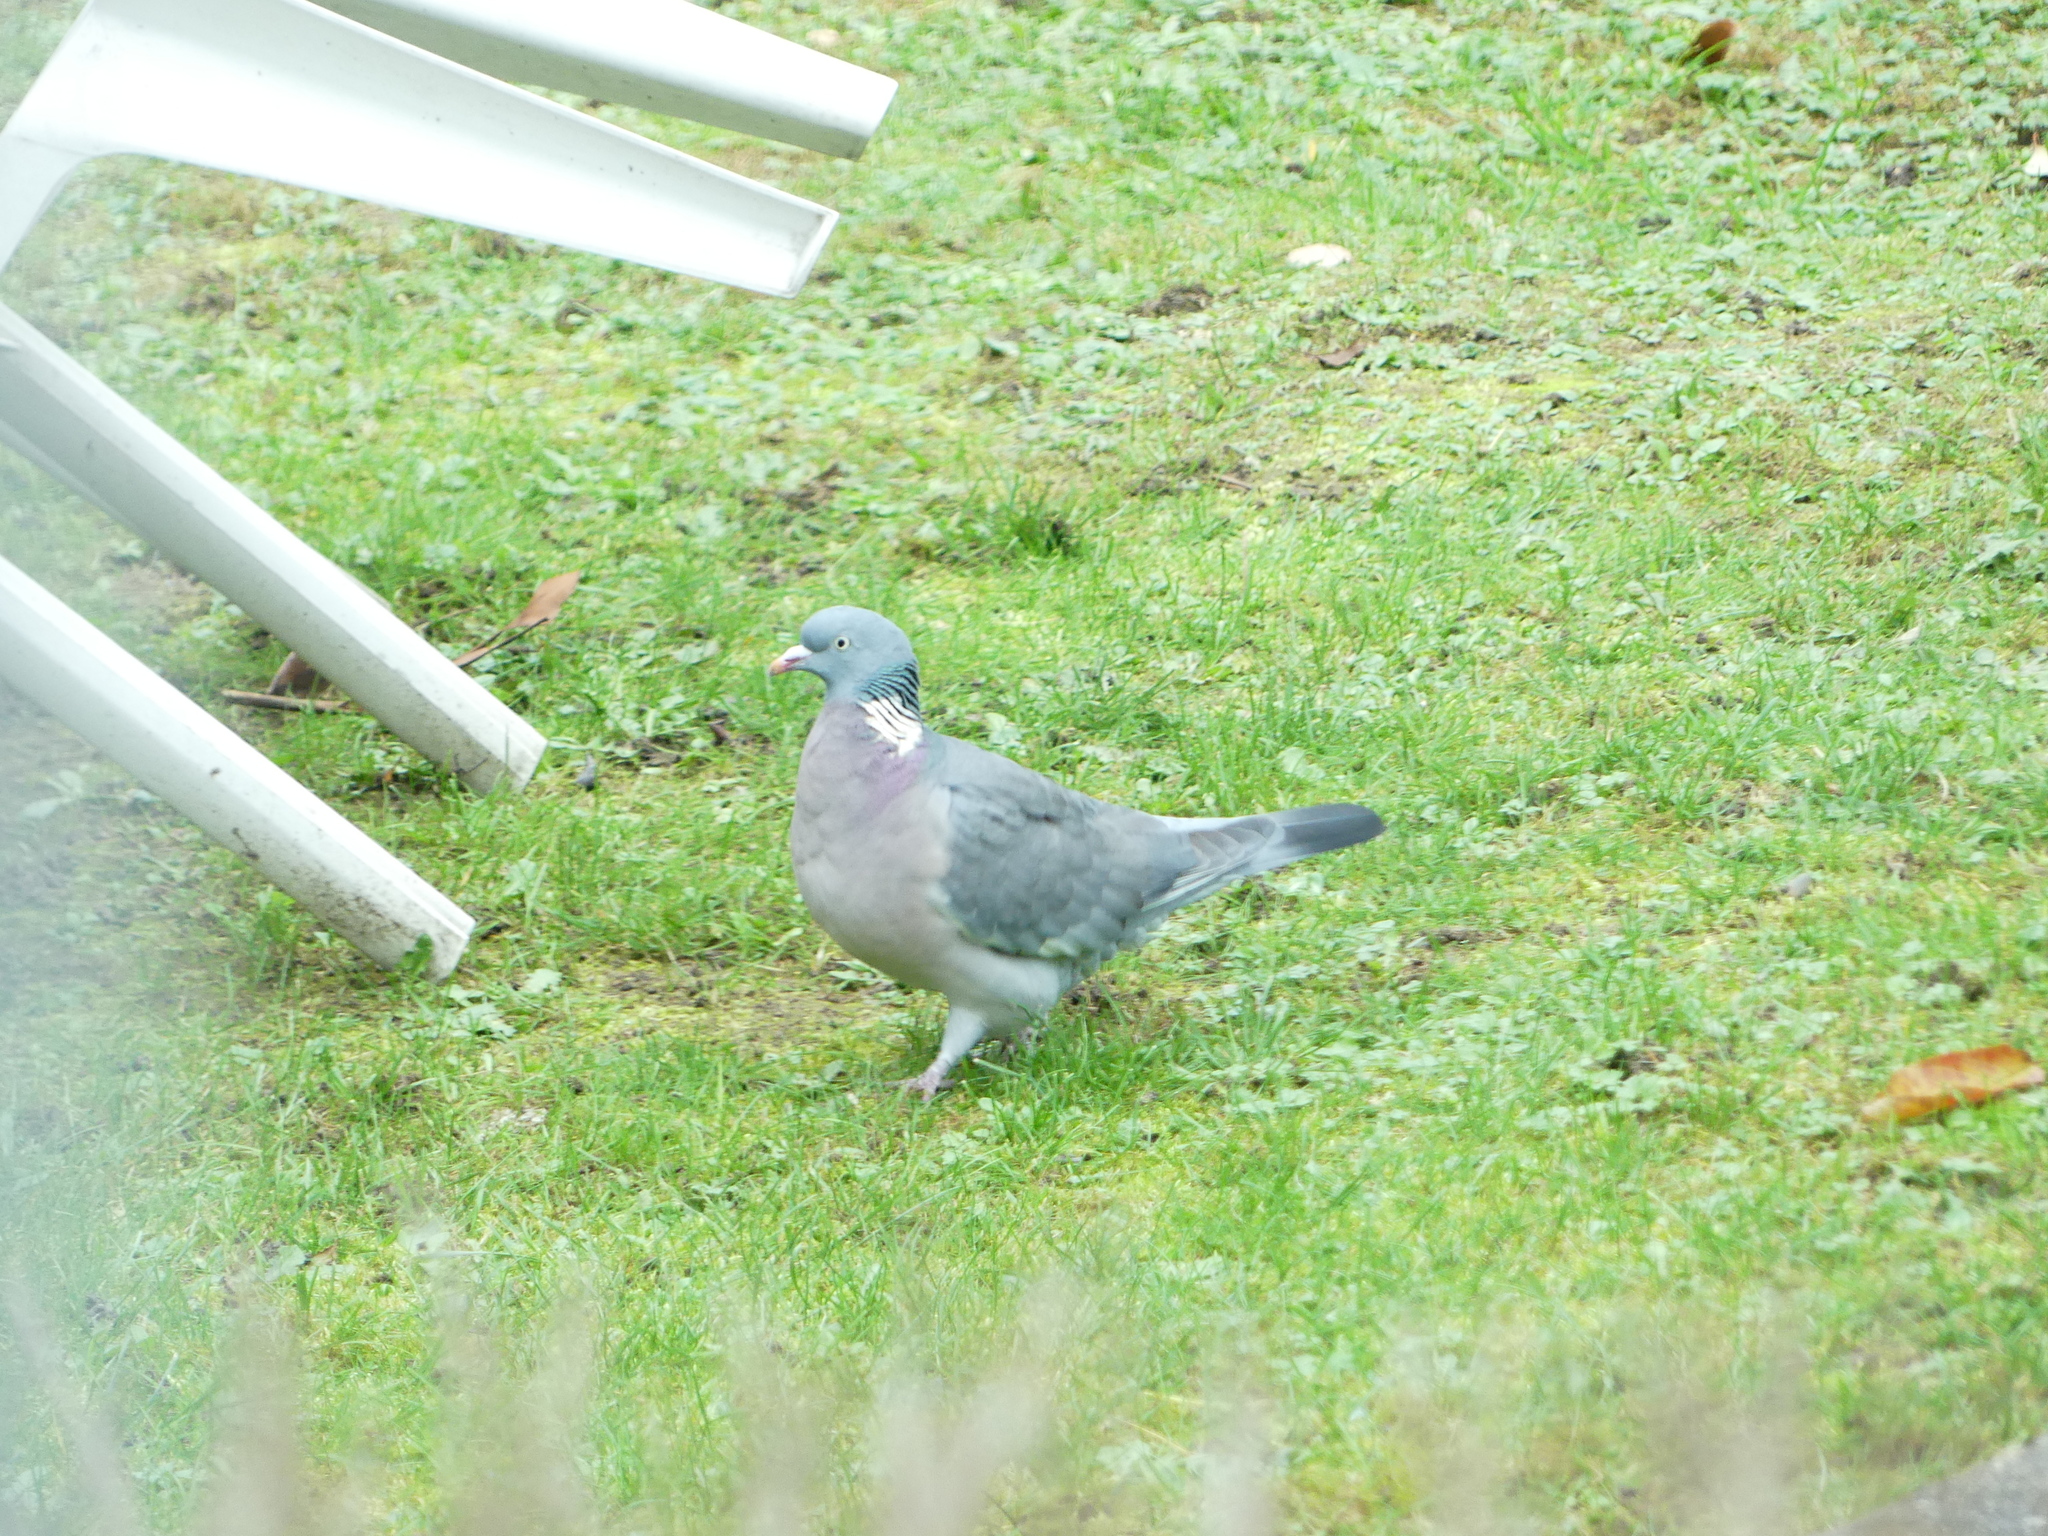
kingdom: Animalia
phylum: Chordata
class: Aves
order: Columbiformes
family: Columbidae
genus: Columba
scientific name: Columba palumbus
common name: Common wood pigeon
